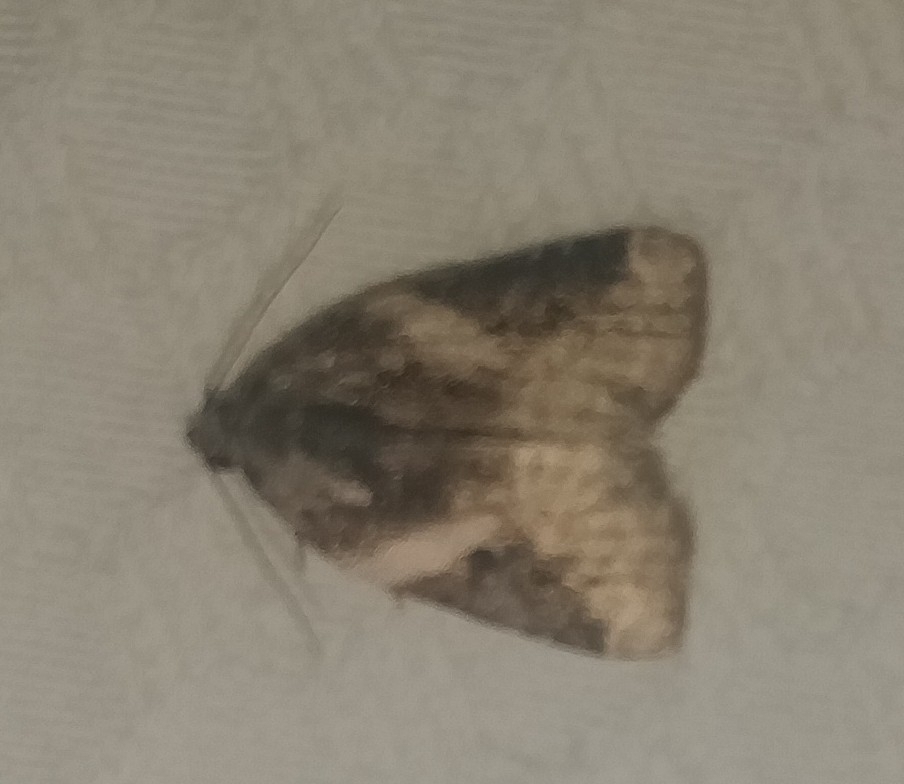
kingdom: Animalia
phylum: Arthropoda
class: Insecta
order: Lepidoptera
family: Noctuidae
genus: Pseudeustrotia
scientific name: Pseudeustrotia carneola
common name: Pink-barred lithacodia moth
